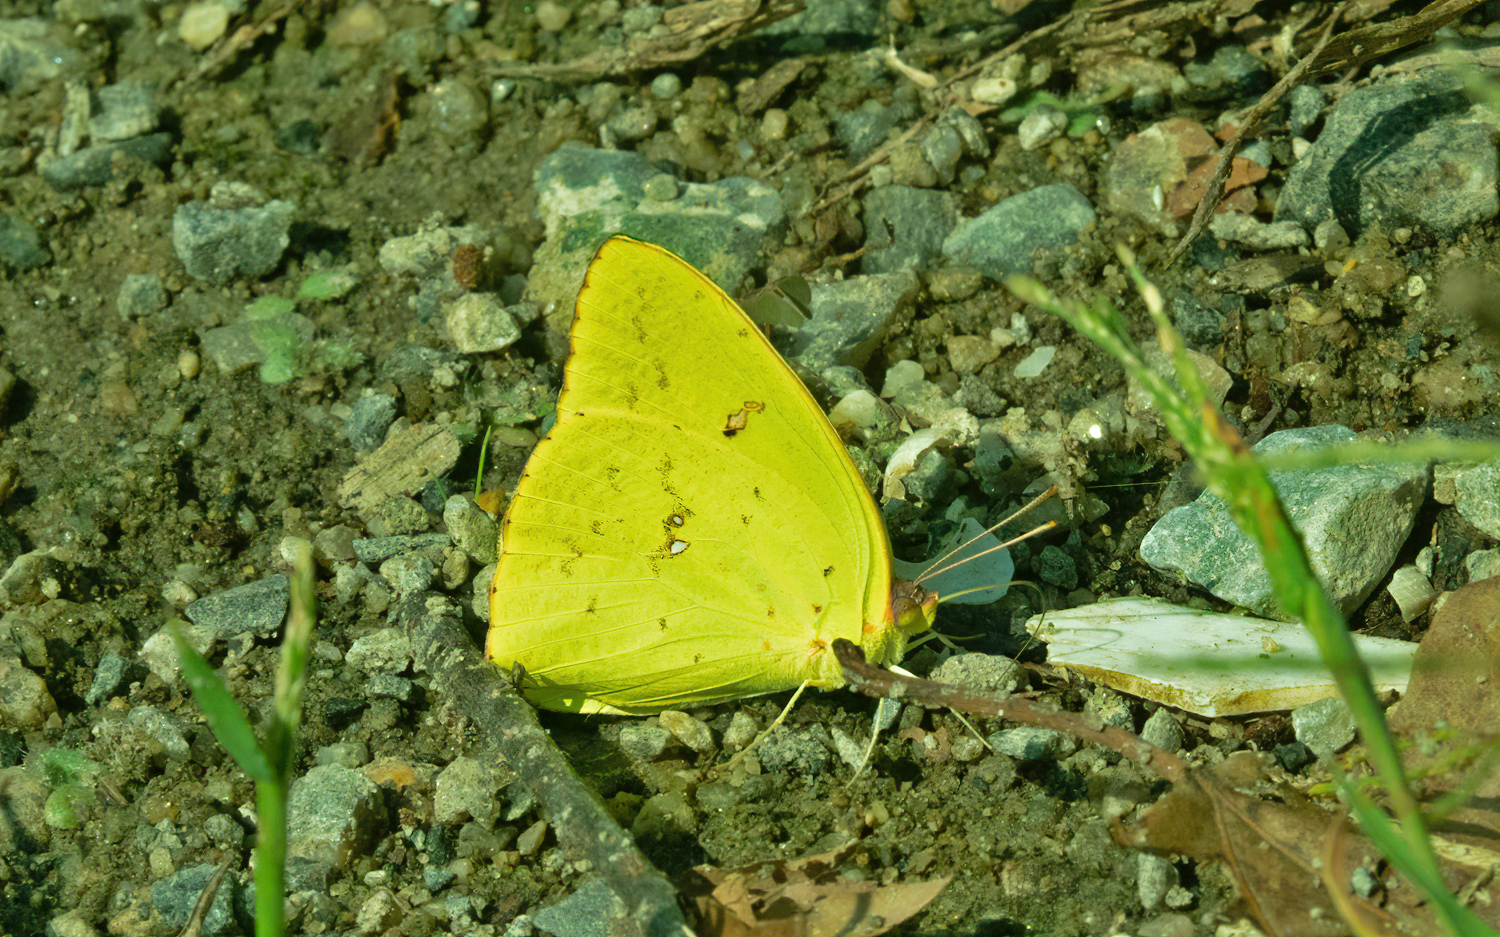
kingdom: Animalia
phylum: Arthropoda
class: Insecta
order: Lepidoptera
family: Pieridae
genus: Phoebis
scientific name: Phoebis sennae
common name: Cloudless sulphur
